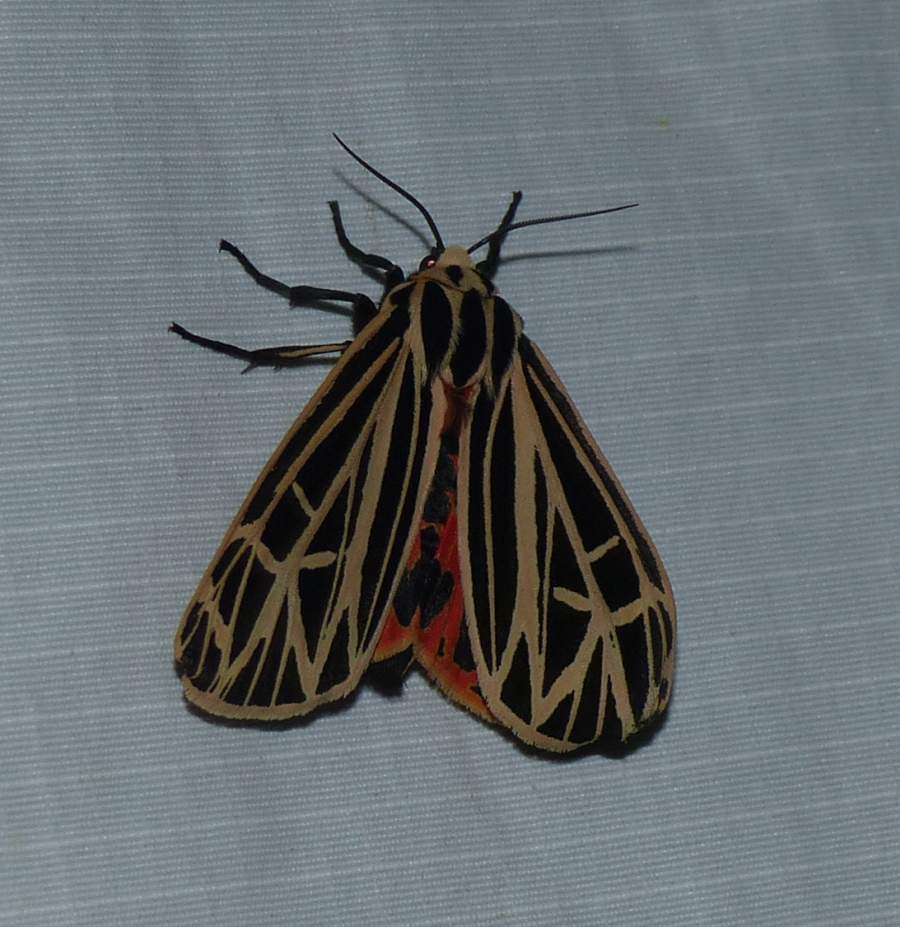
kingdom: Animalia
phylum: Arthropoda
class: Insecta
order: Lepidoptera
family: Erebidae
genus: Grammia
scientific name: Grammia virgo
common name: Virgin tiger moth
